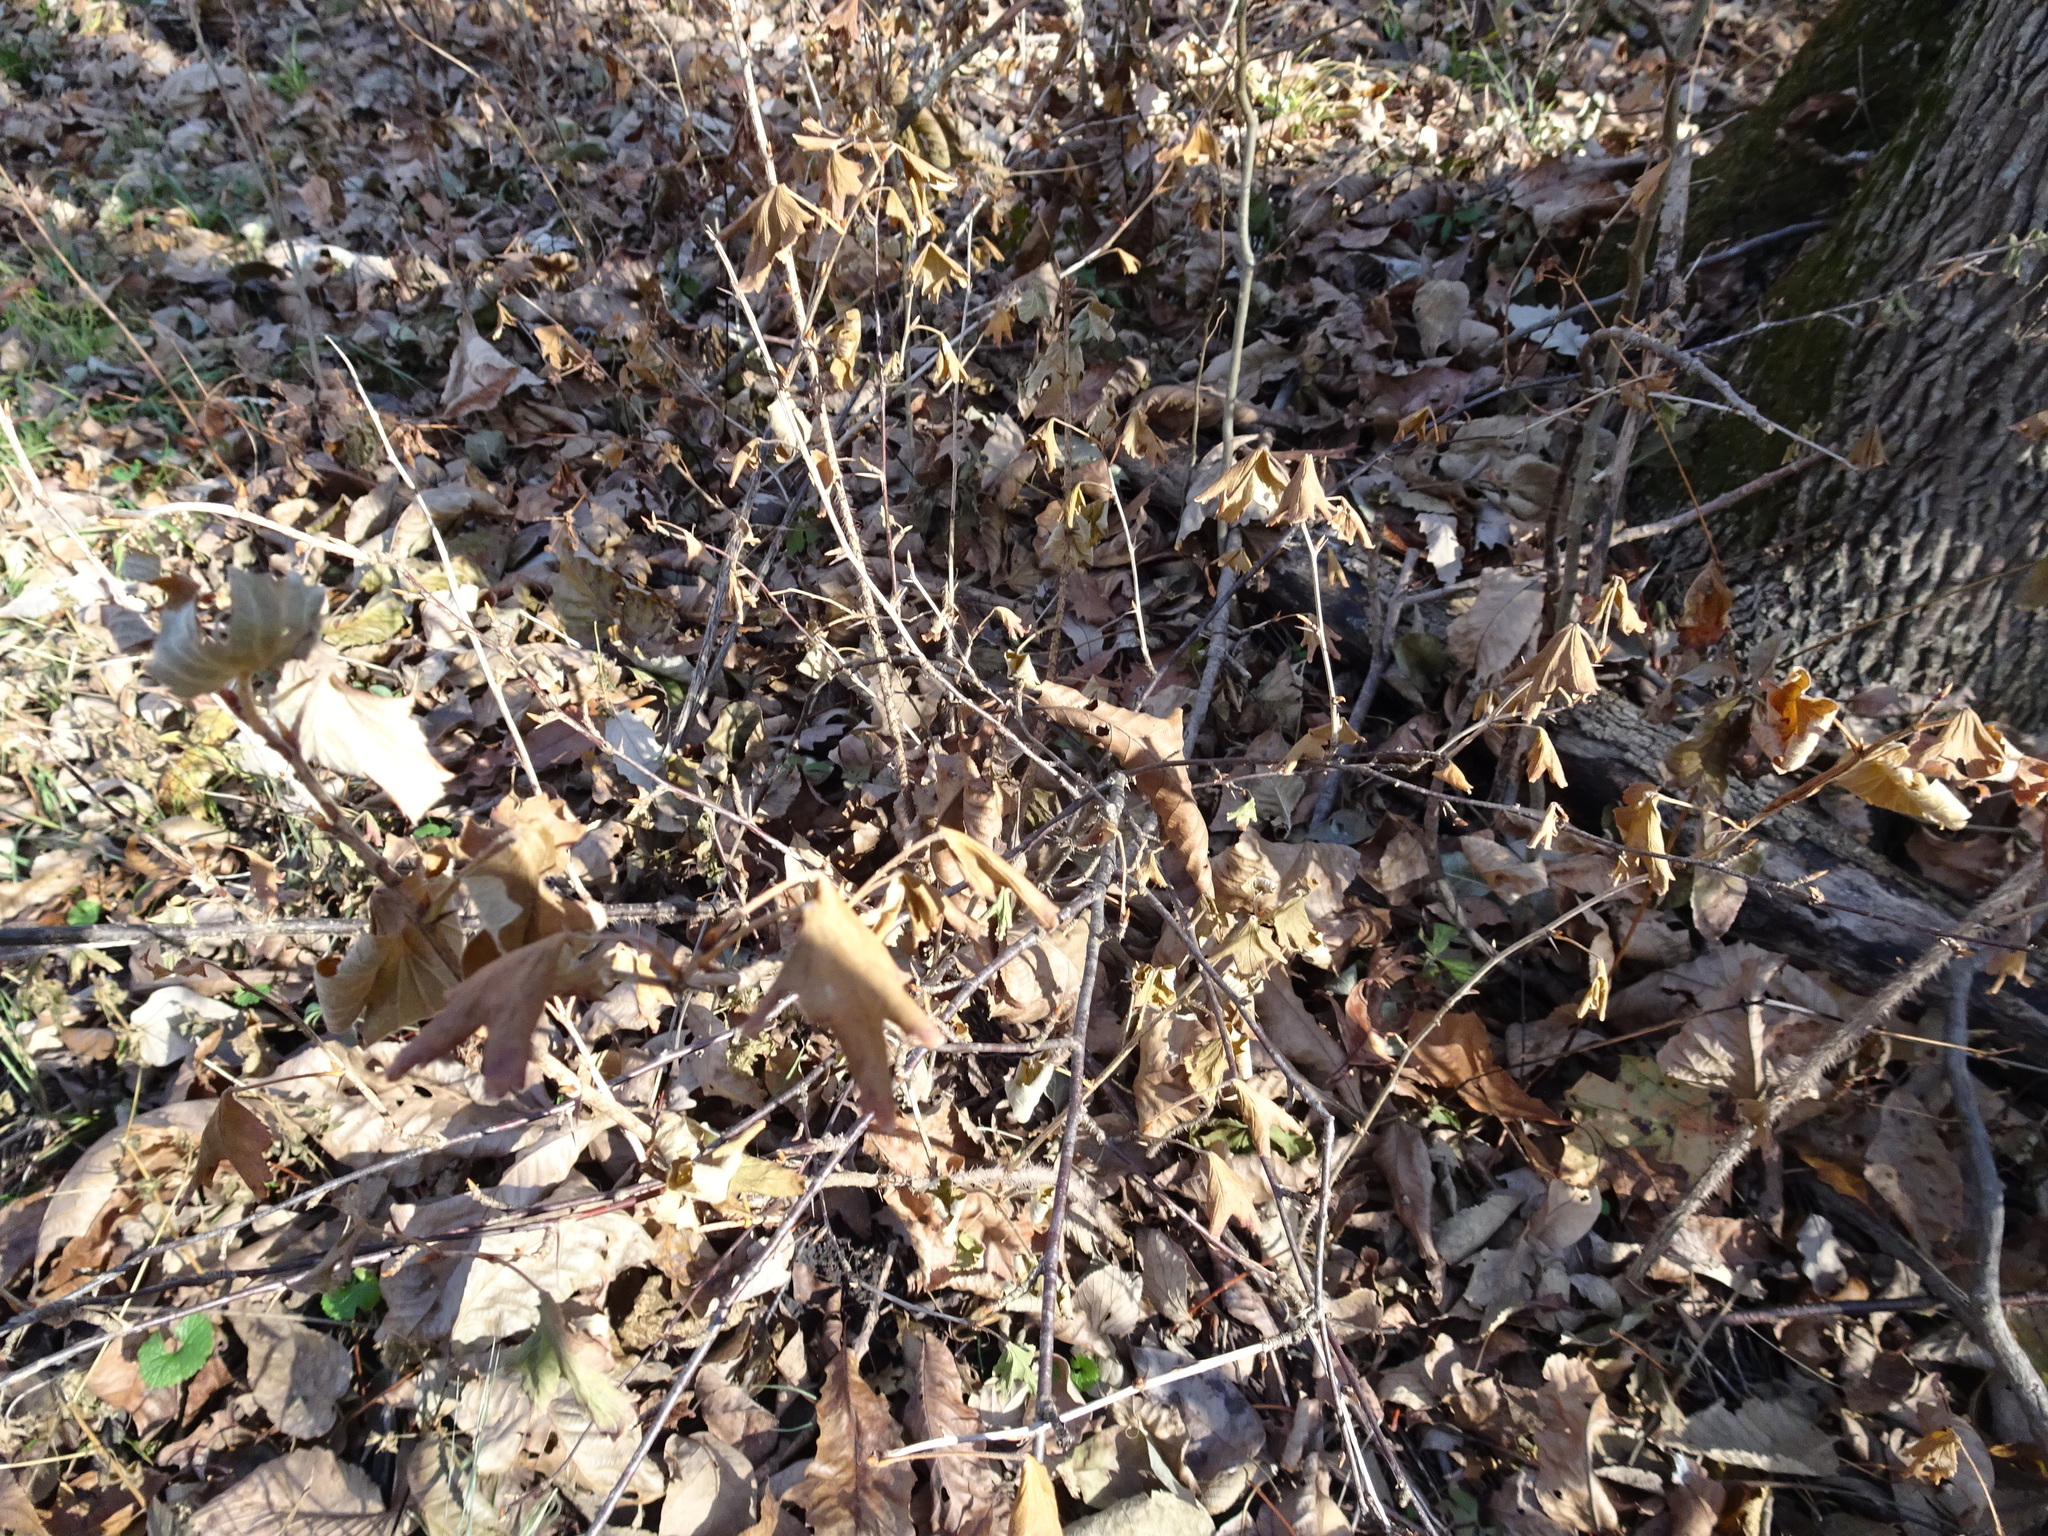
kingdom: Plantae
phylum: Tracheophyta
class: Magnoliopsida
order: Saxifragales
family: Grossulariaceae
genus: Ribes
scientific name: Ribes missouriense
